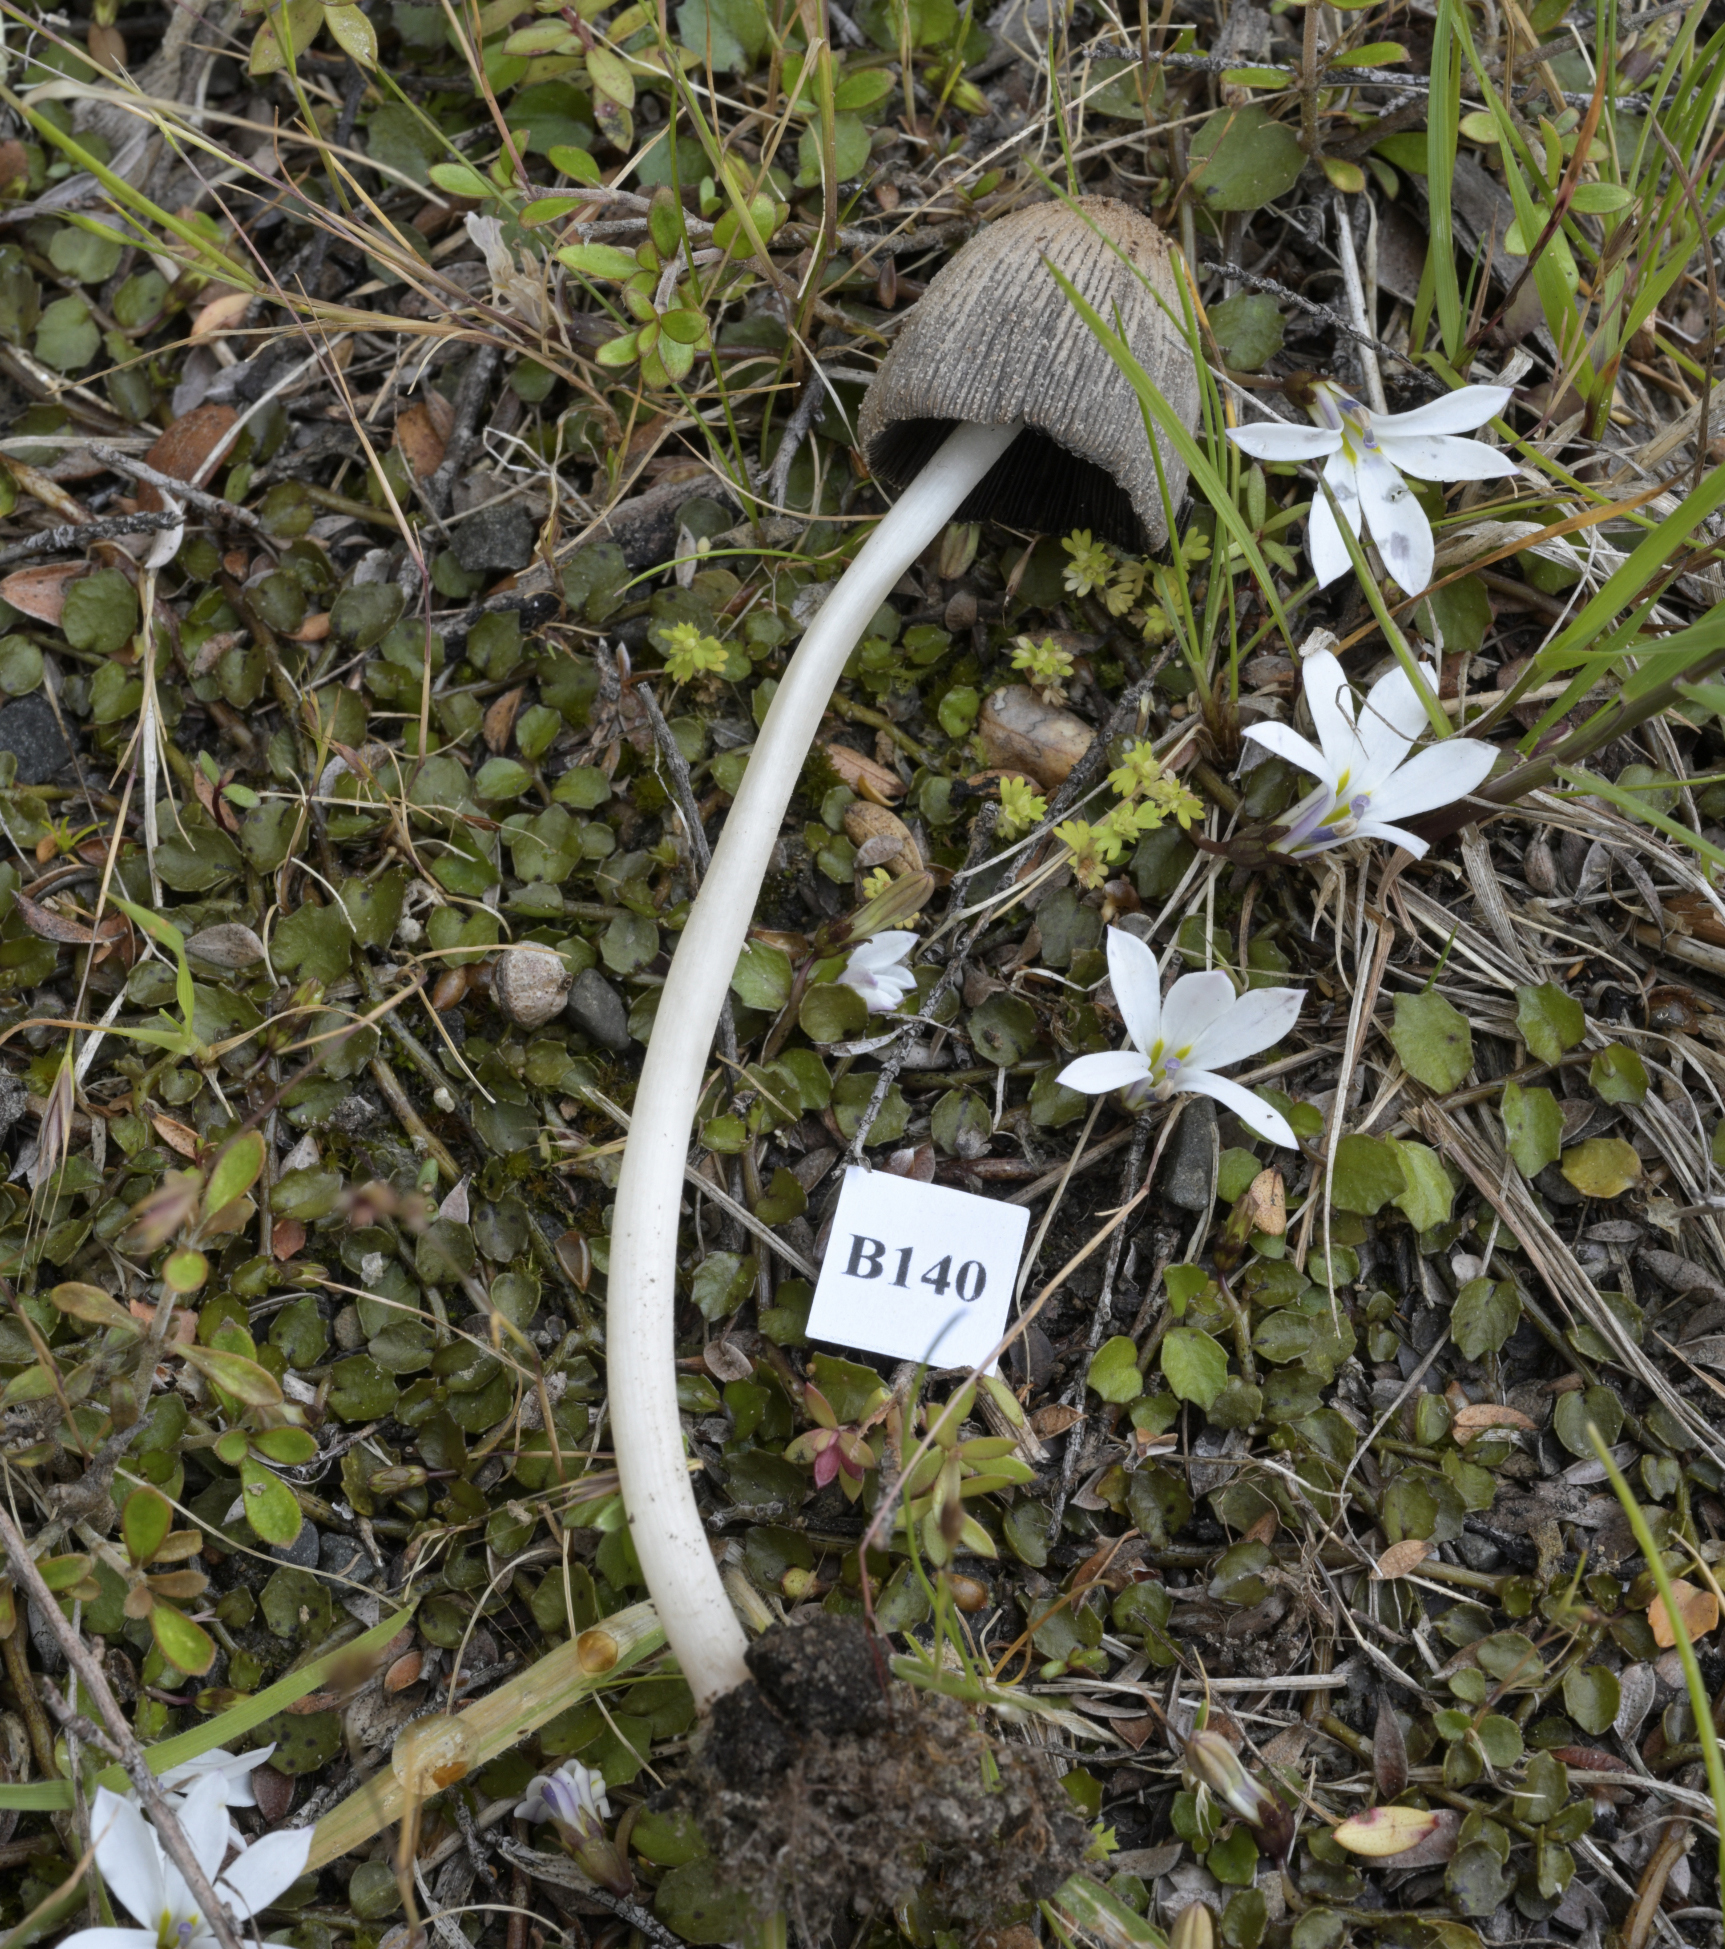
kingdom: Fungi
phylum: Basidiomycota
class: Agaricomycetes
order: Agaricales
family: Psathyrellaceae
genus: Coprinellus
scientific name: Coprinellus xanthothrix
